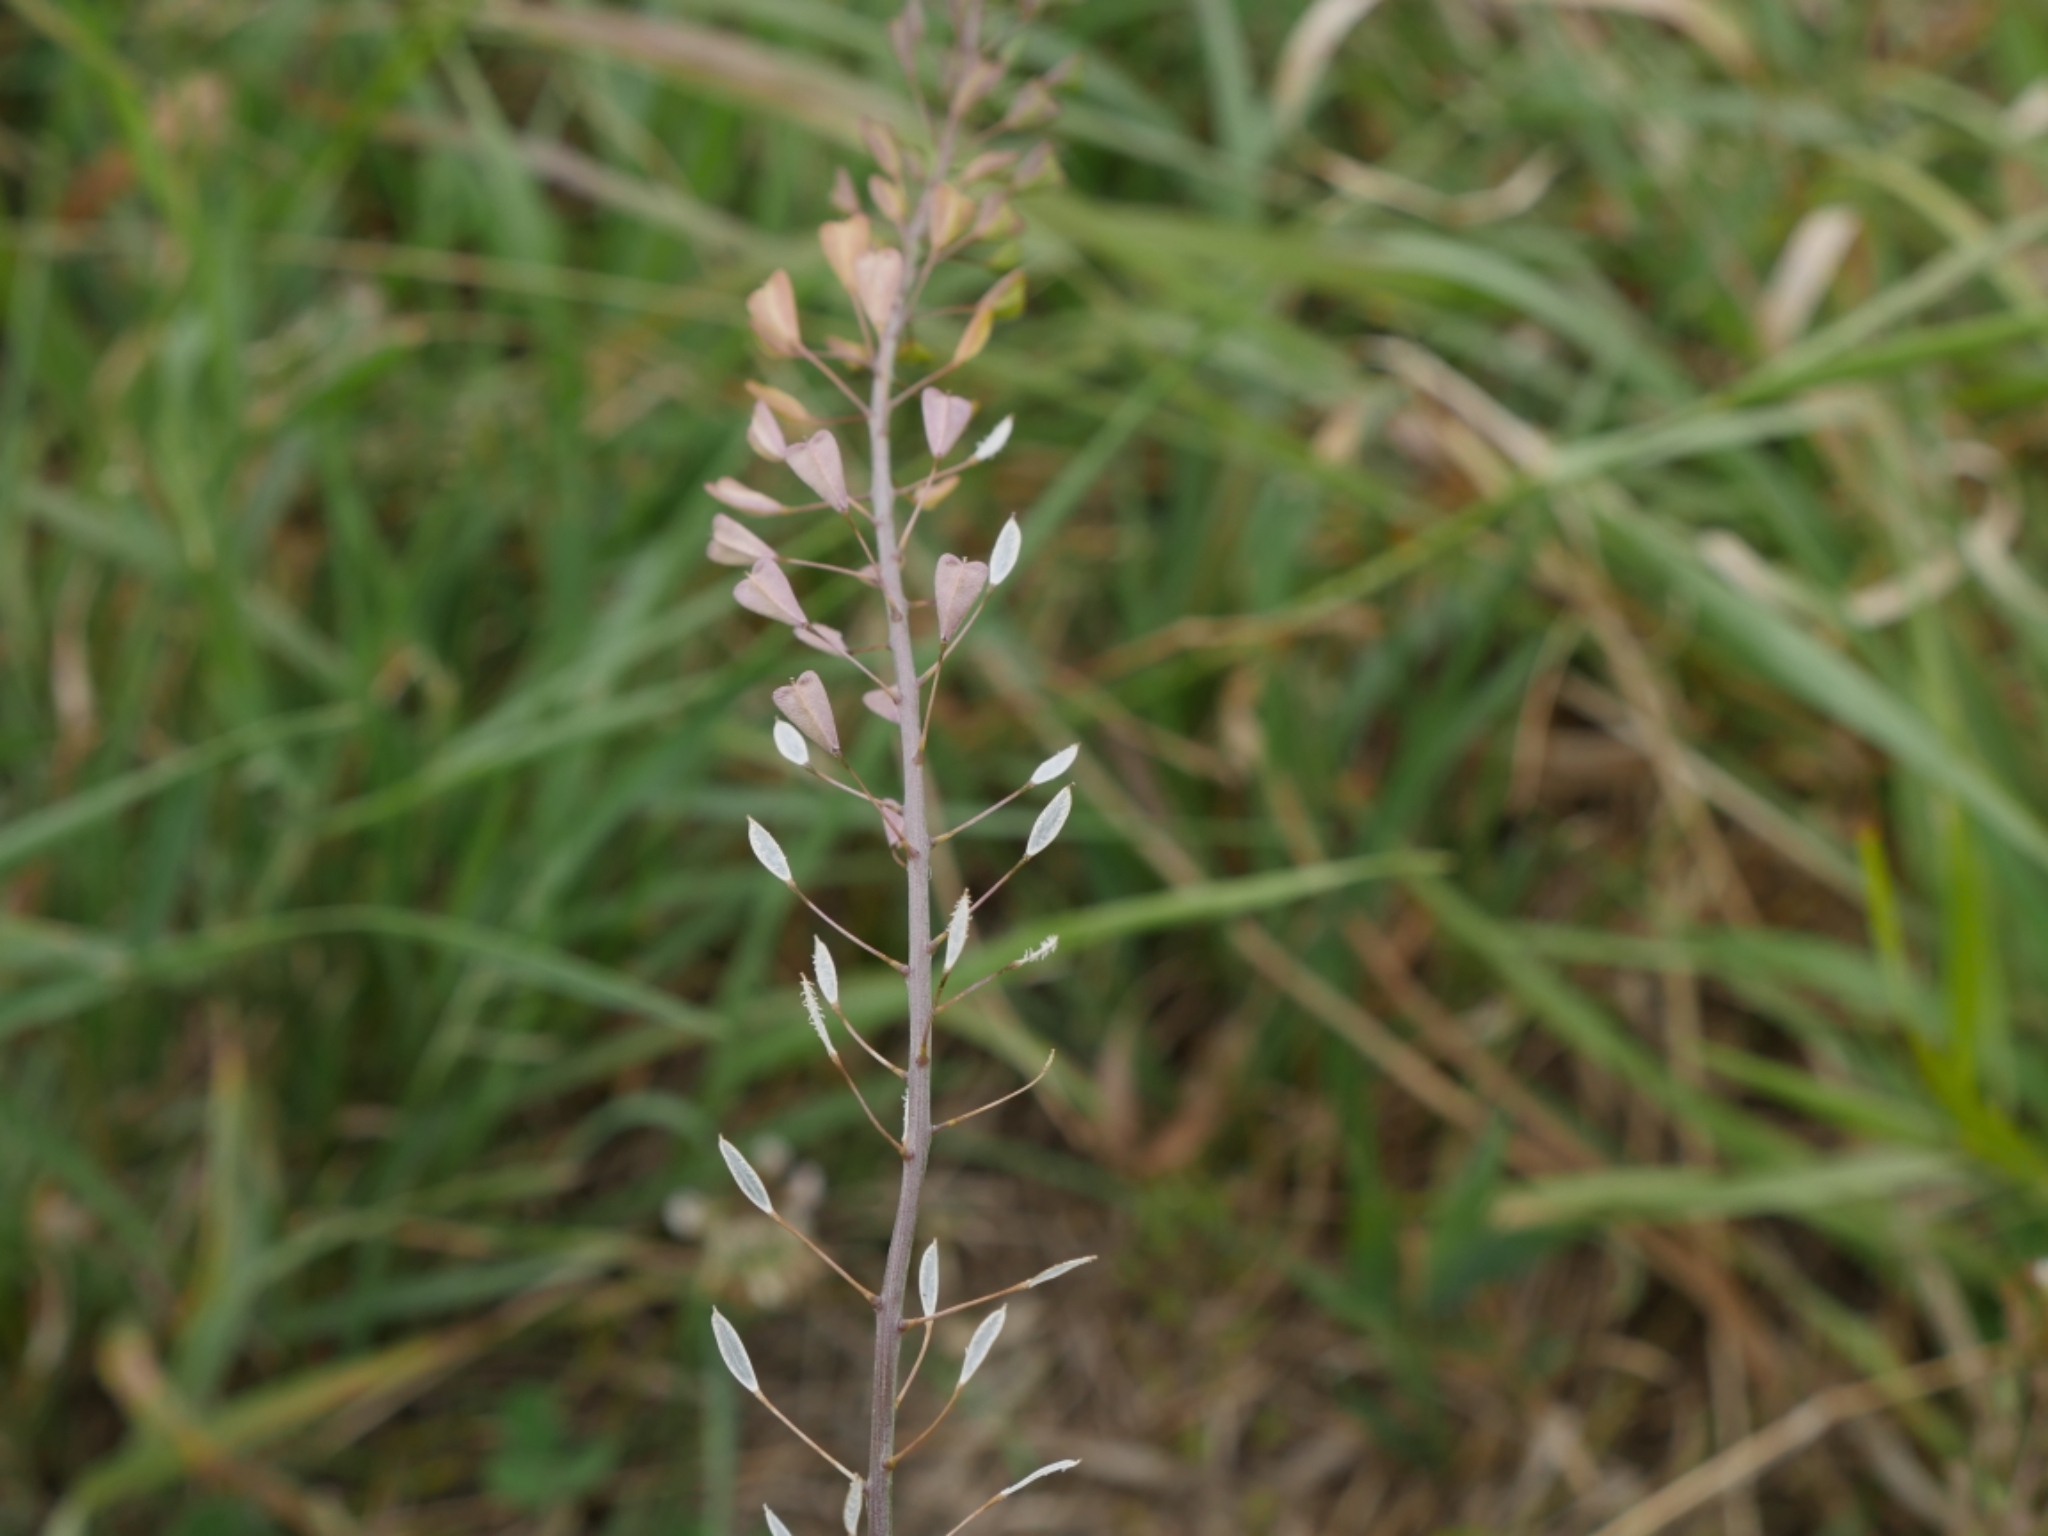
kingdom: Plantae
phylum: Tracheophyta
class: Magnoliopsida
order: Brassicales
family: Brassicaceae
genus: Capsella
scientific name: Capsella bursa-pastoris
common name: Shepherd's purse
